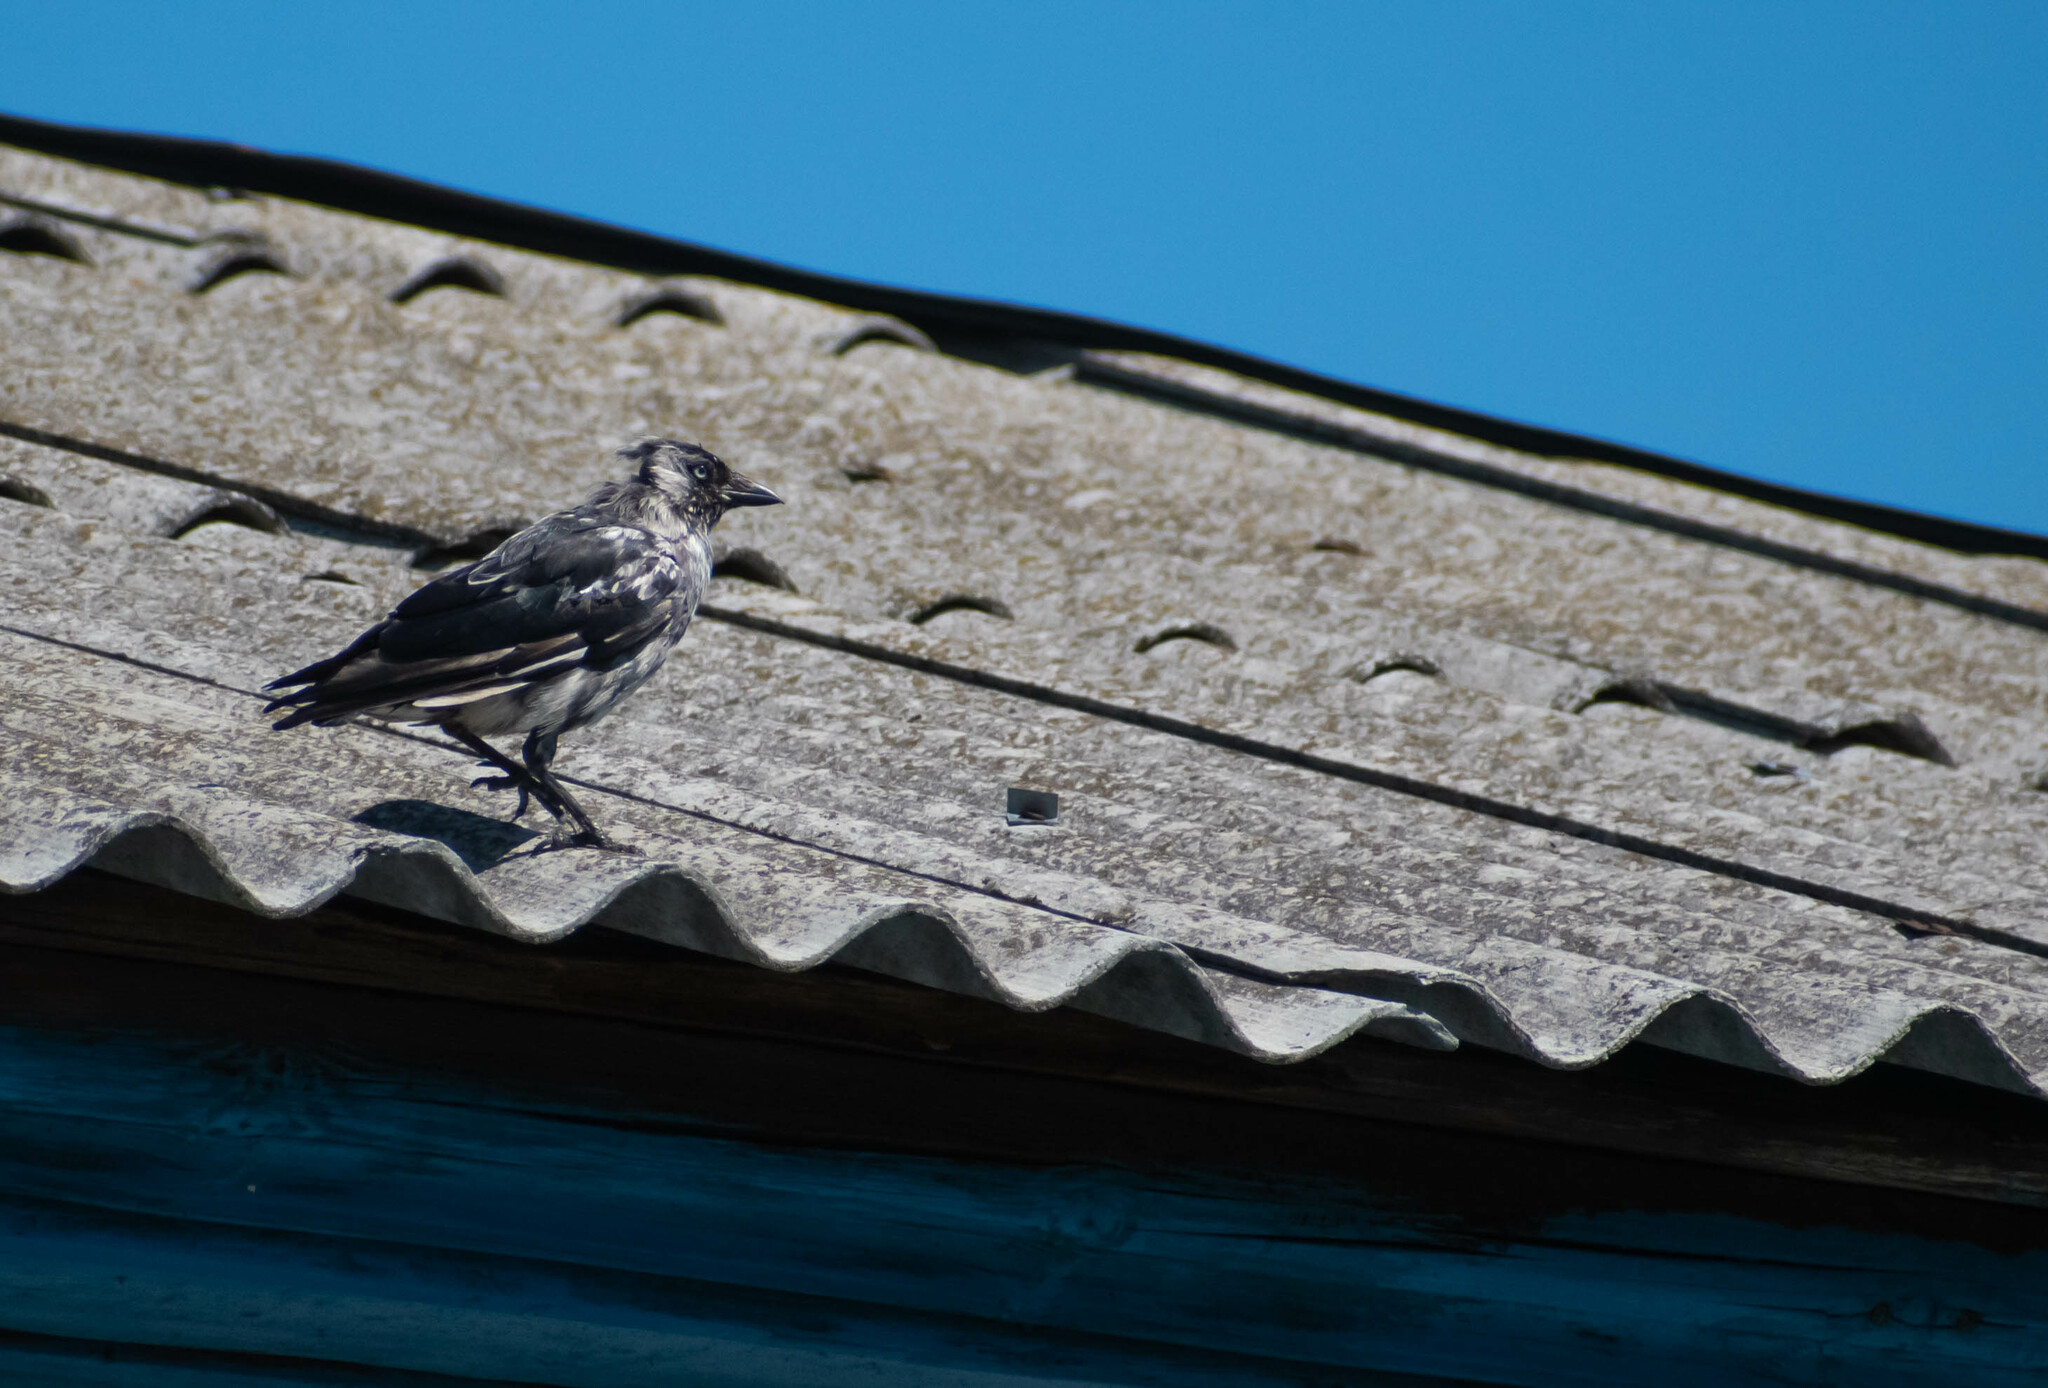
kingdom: Animalia
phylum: Chordata
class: Aves
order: Passeriformes
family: Corvidae
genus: Coloeus
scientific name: Coloeus monedula
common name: Western jackdaw
